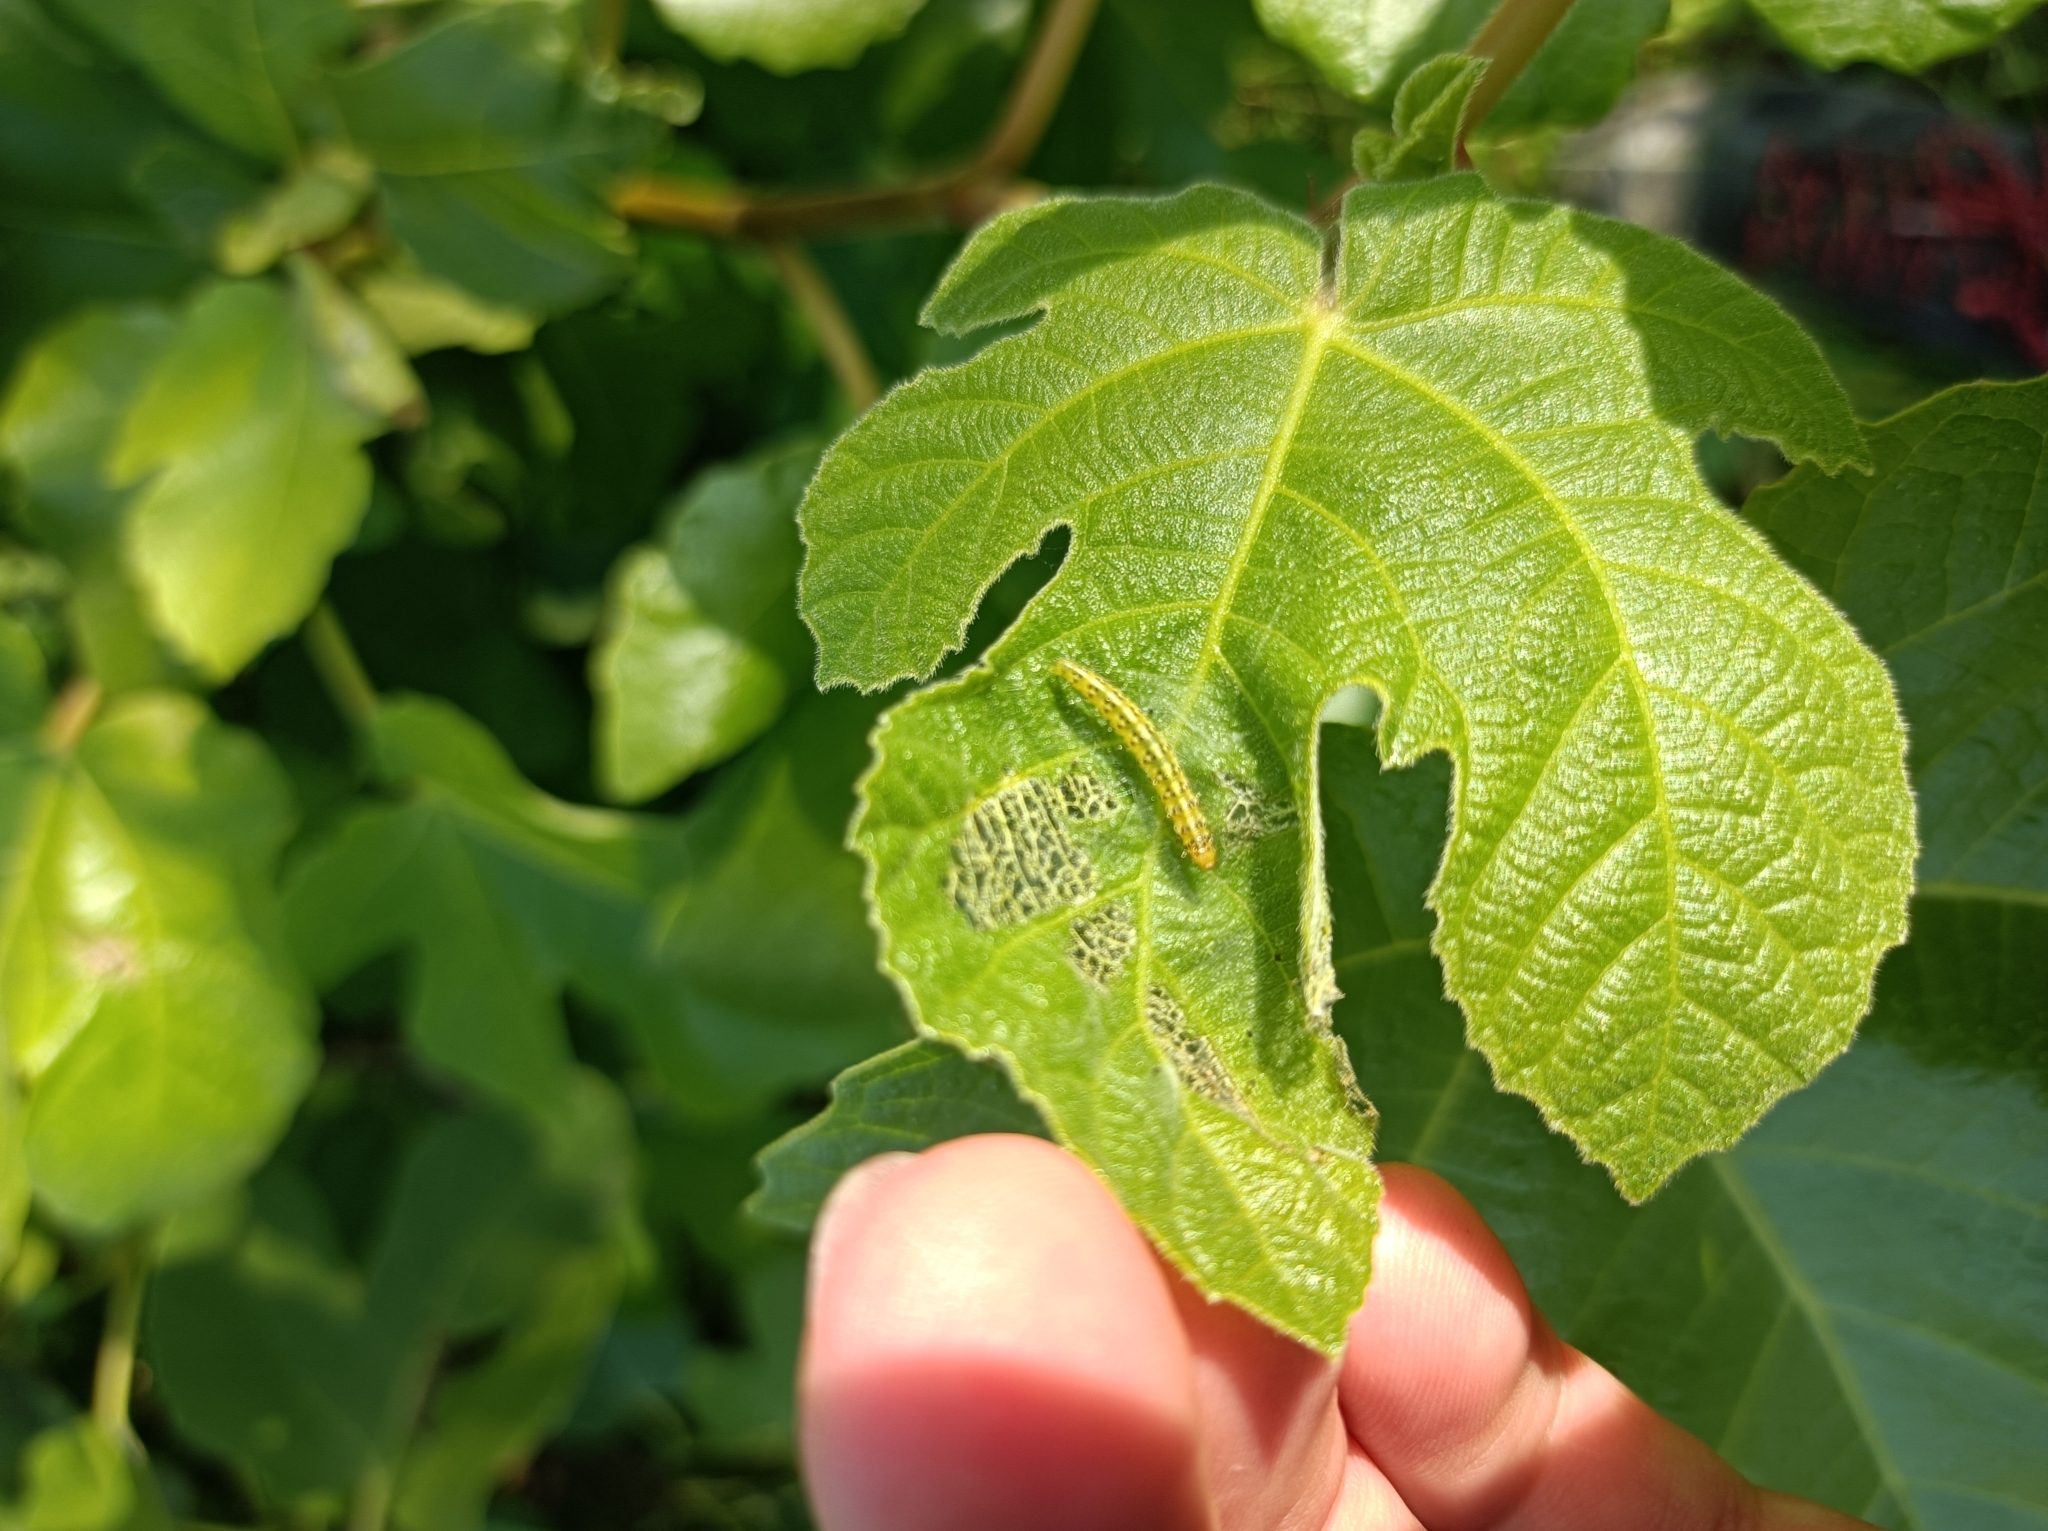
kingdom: Animalia
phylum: Arthropoda
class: Insecta
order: Lepidoptera
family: Choreutidae
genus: Anthophila
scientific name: Anthophila nemorana
